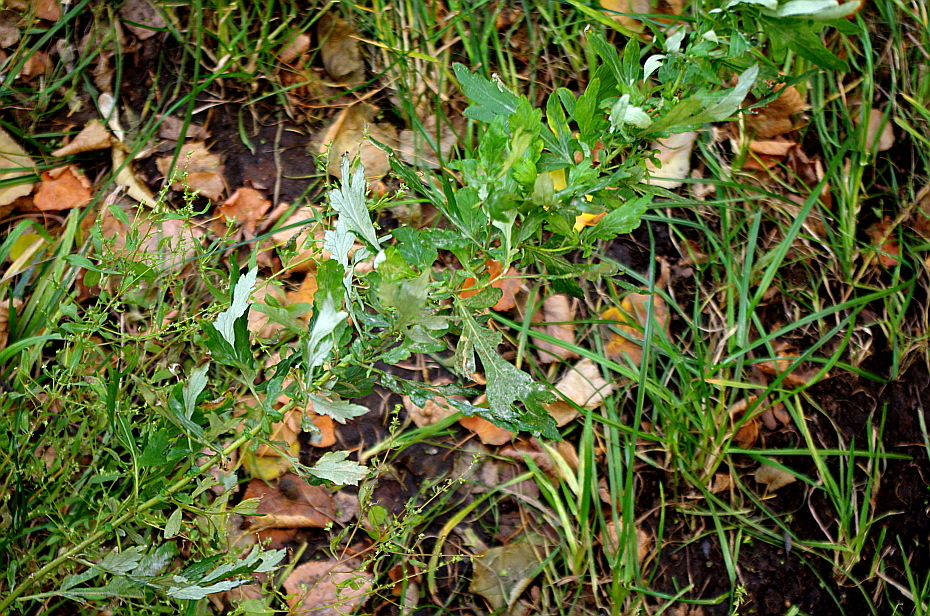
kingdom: Plantae
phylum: Tracheophyta
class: Magnoliopsida
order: Asterales
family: Asteraceae
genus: Artemisia
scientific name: Artemisia vulgaris
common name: Mugwort
